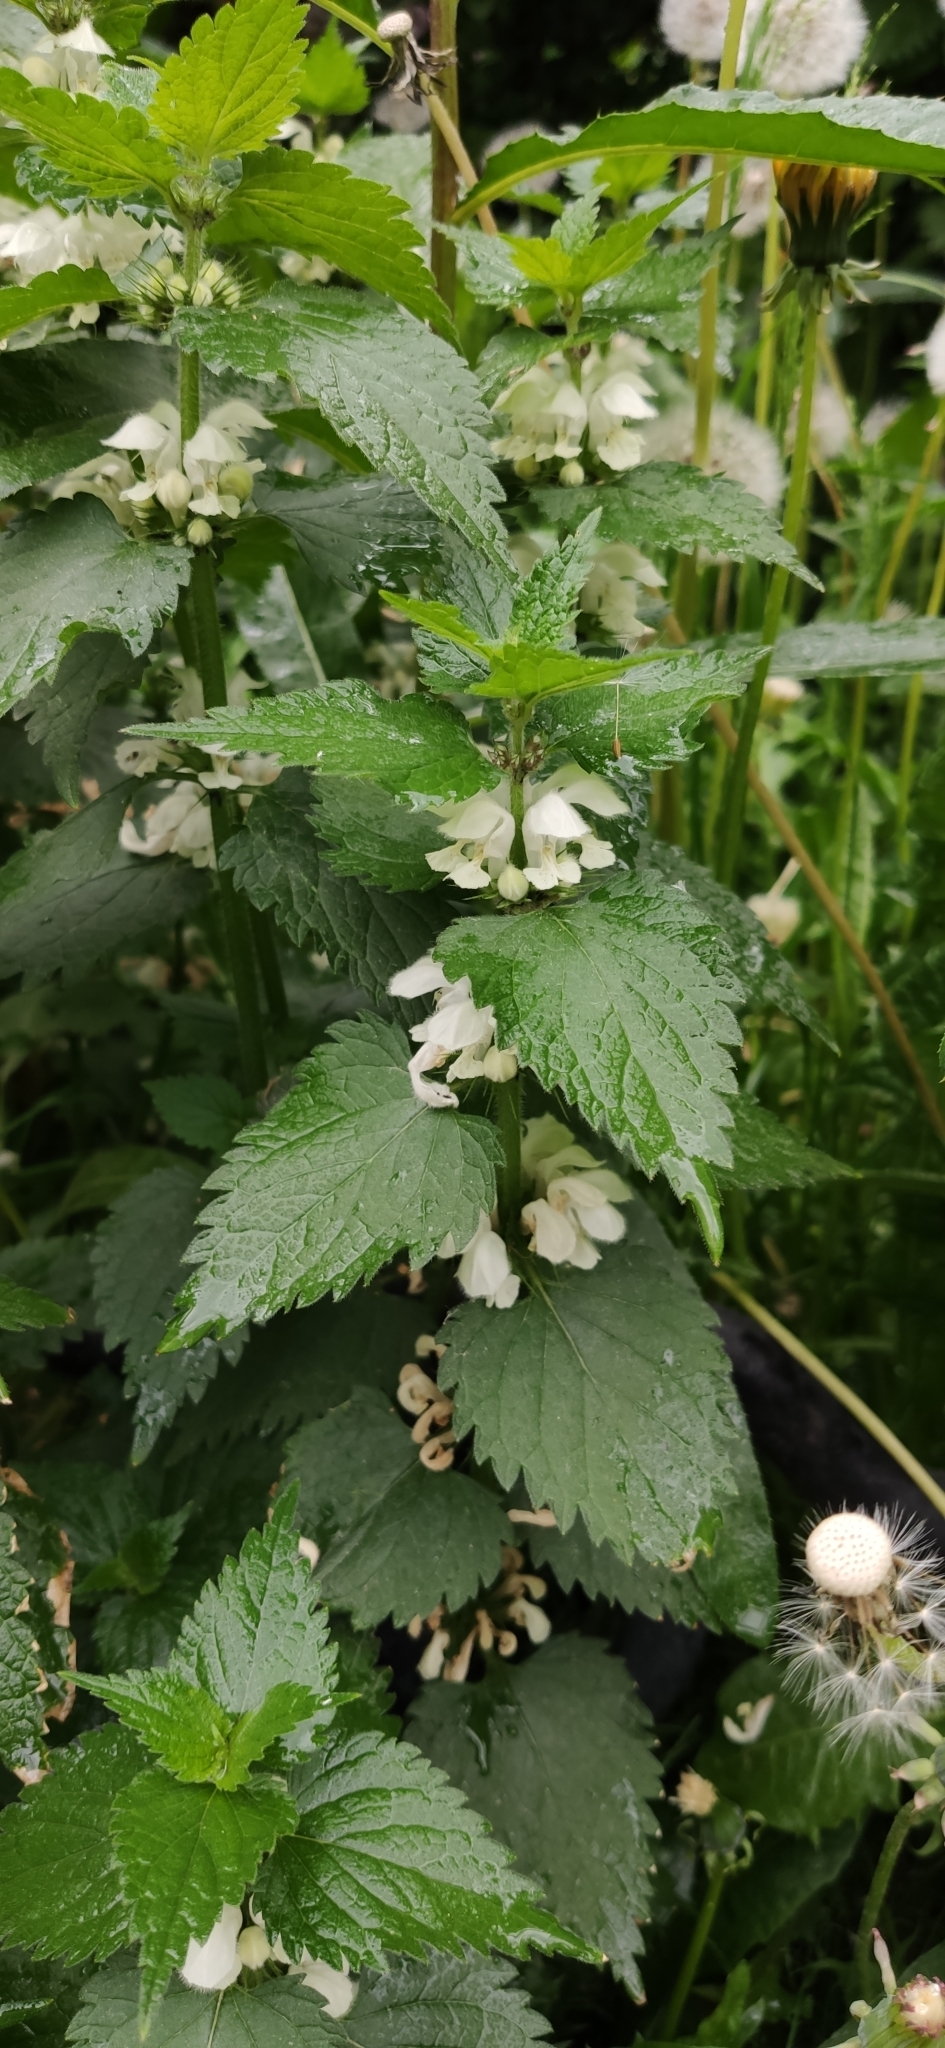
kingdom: Plantae
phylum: Tracheophyta
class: Magnoliopsida
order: Lamiales
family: Lamiaceae
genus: Lamium
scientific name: Lamium album
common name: White dead-nettle
